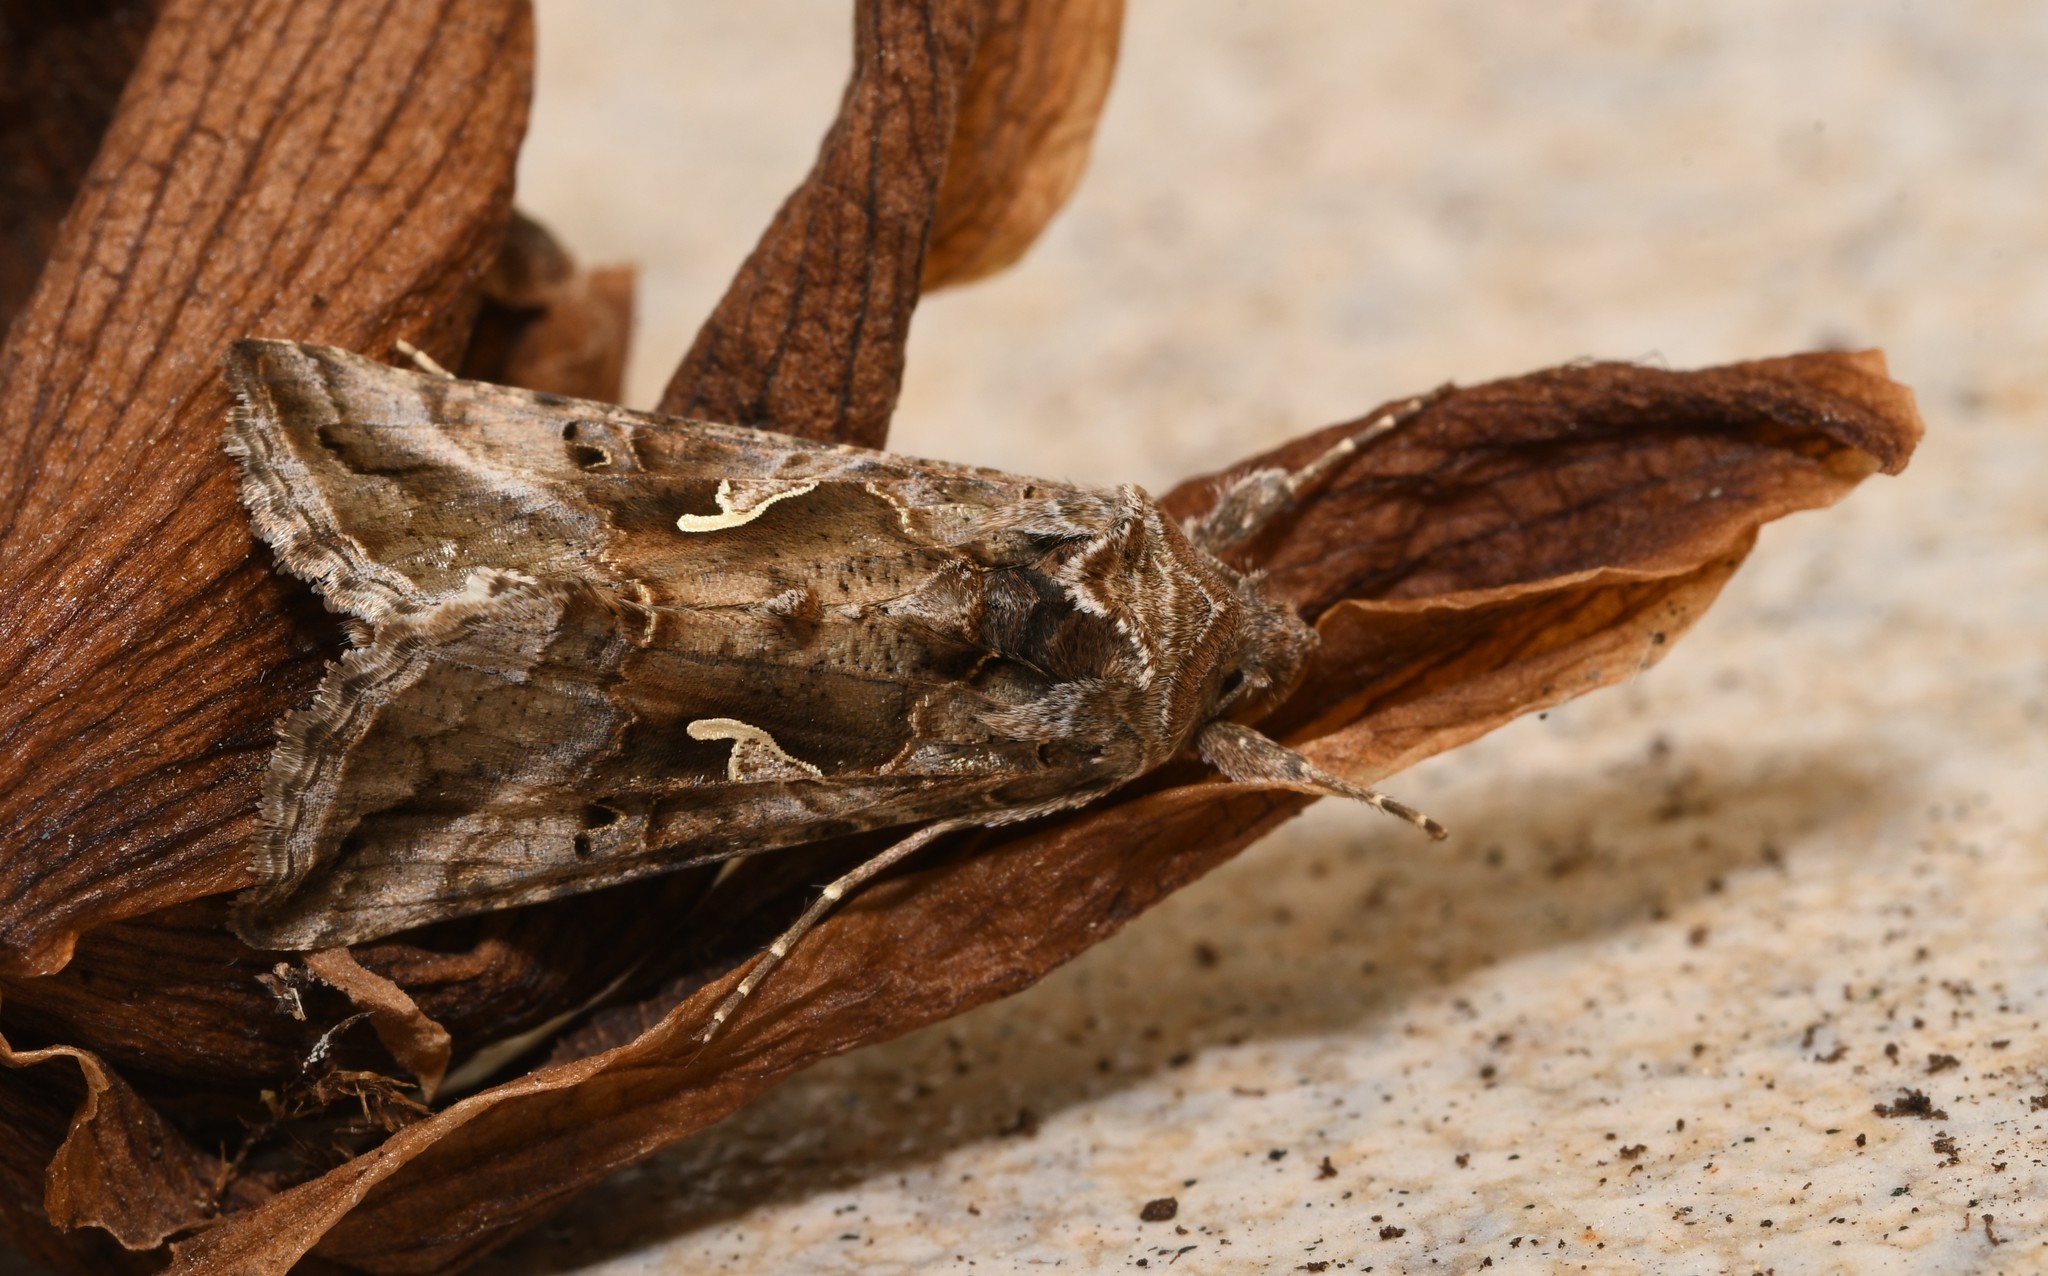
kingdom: Animalia
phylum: Arthropoda
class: Insecta
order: Lepidoptera
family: Noctuidae
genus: Autographa
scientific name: Autographa gamma
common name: Silver y
